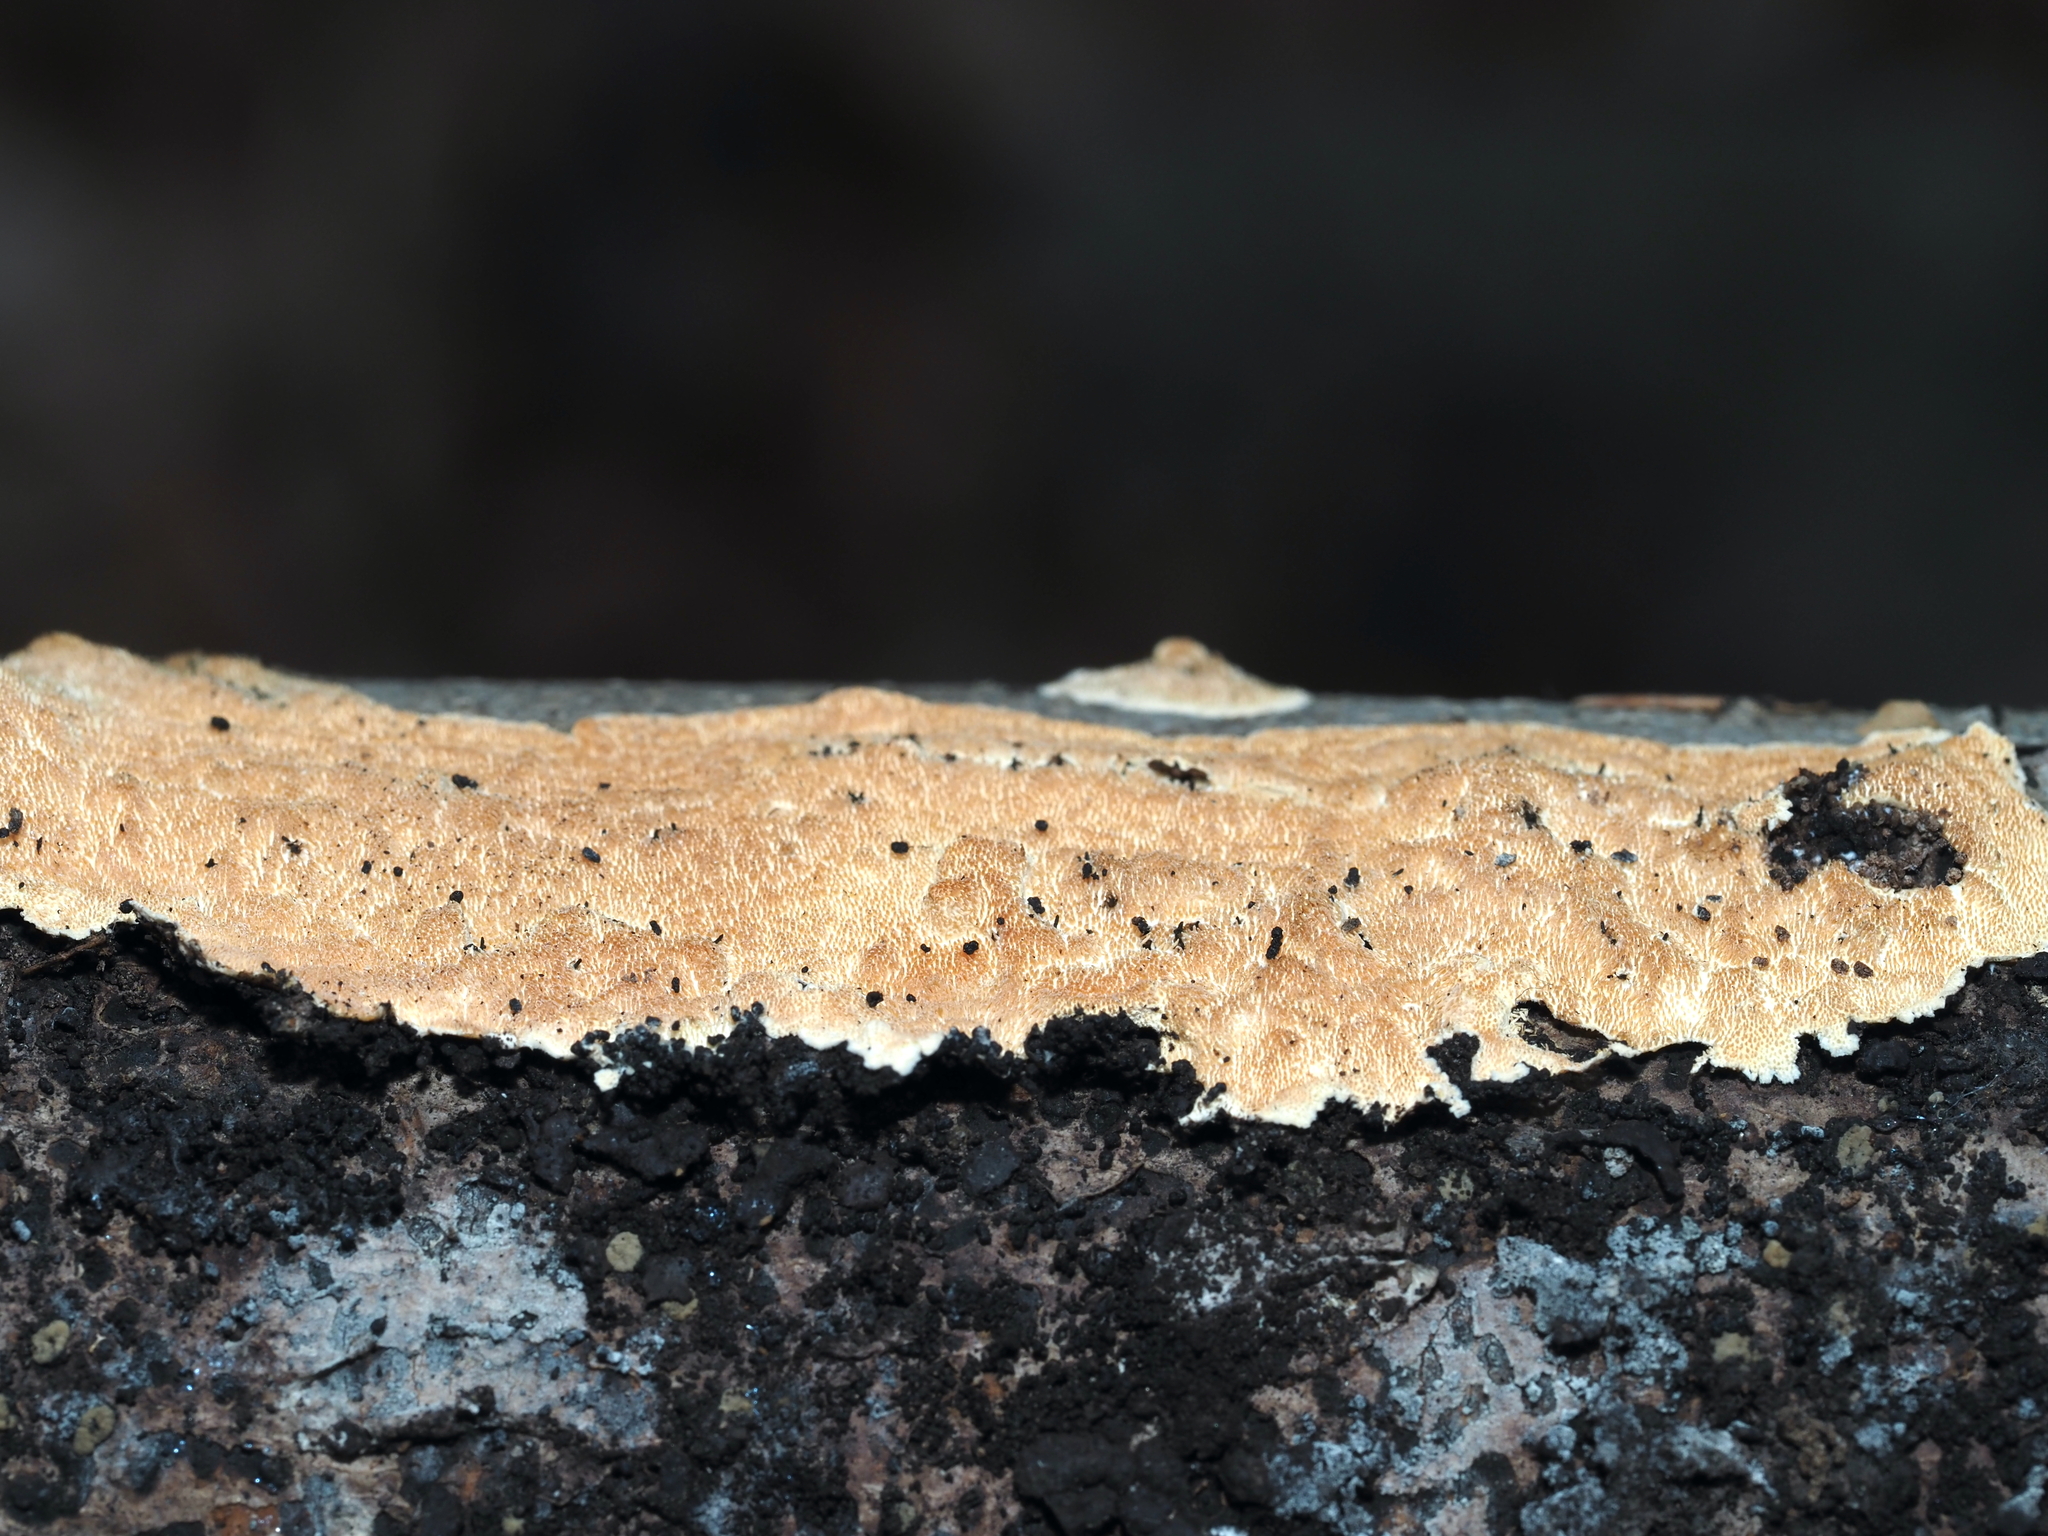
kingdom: Fungi
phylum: Basidiomycota
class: Agaricomycetes
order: Polyporales
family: Steccherinaceae
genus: Steccherinum
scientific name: Steccherinum ochraceum
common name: Ochre spreading tooth
